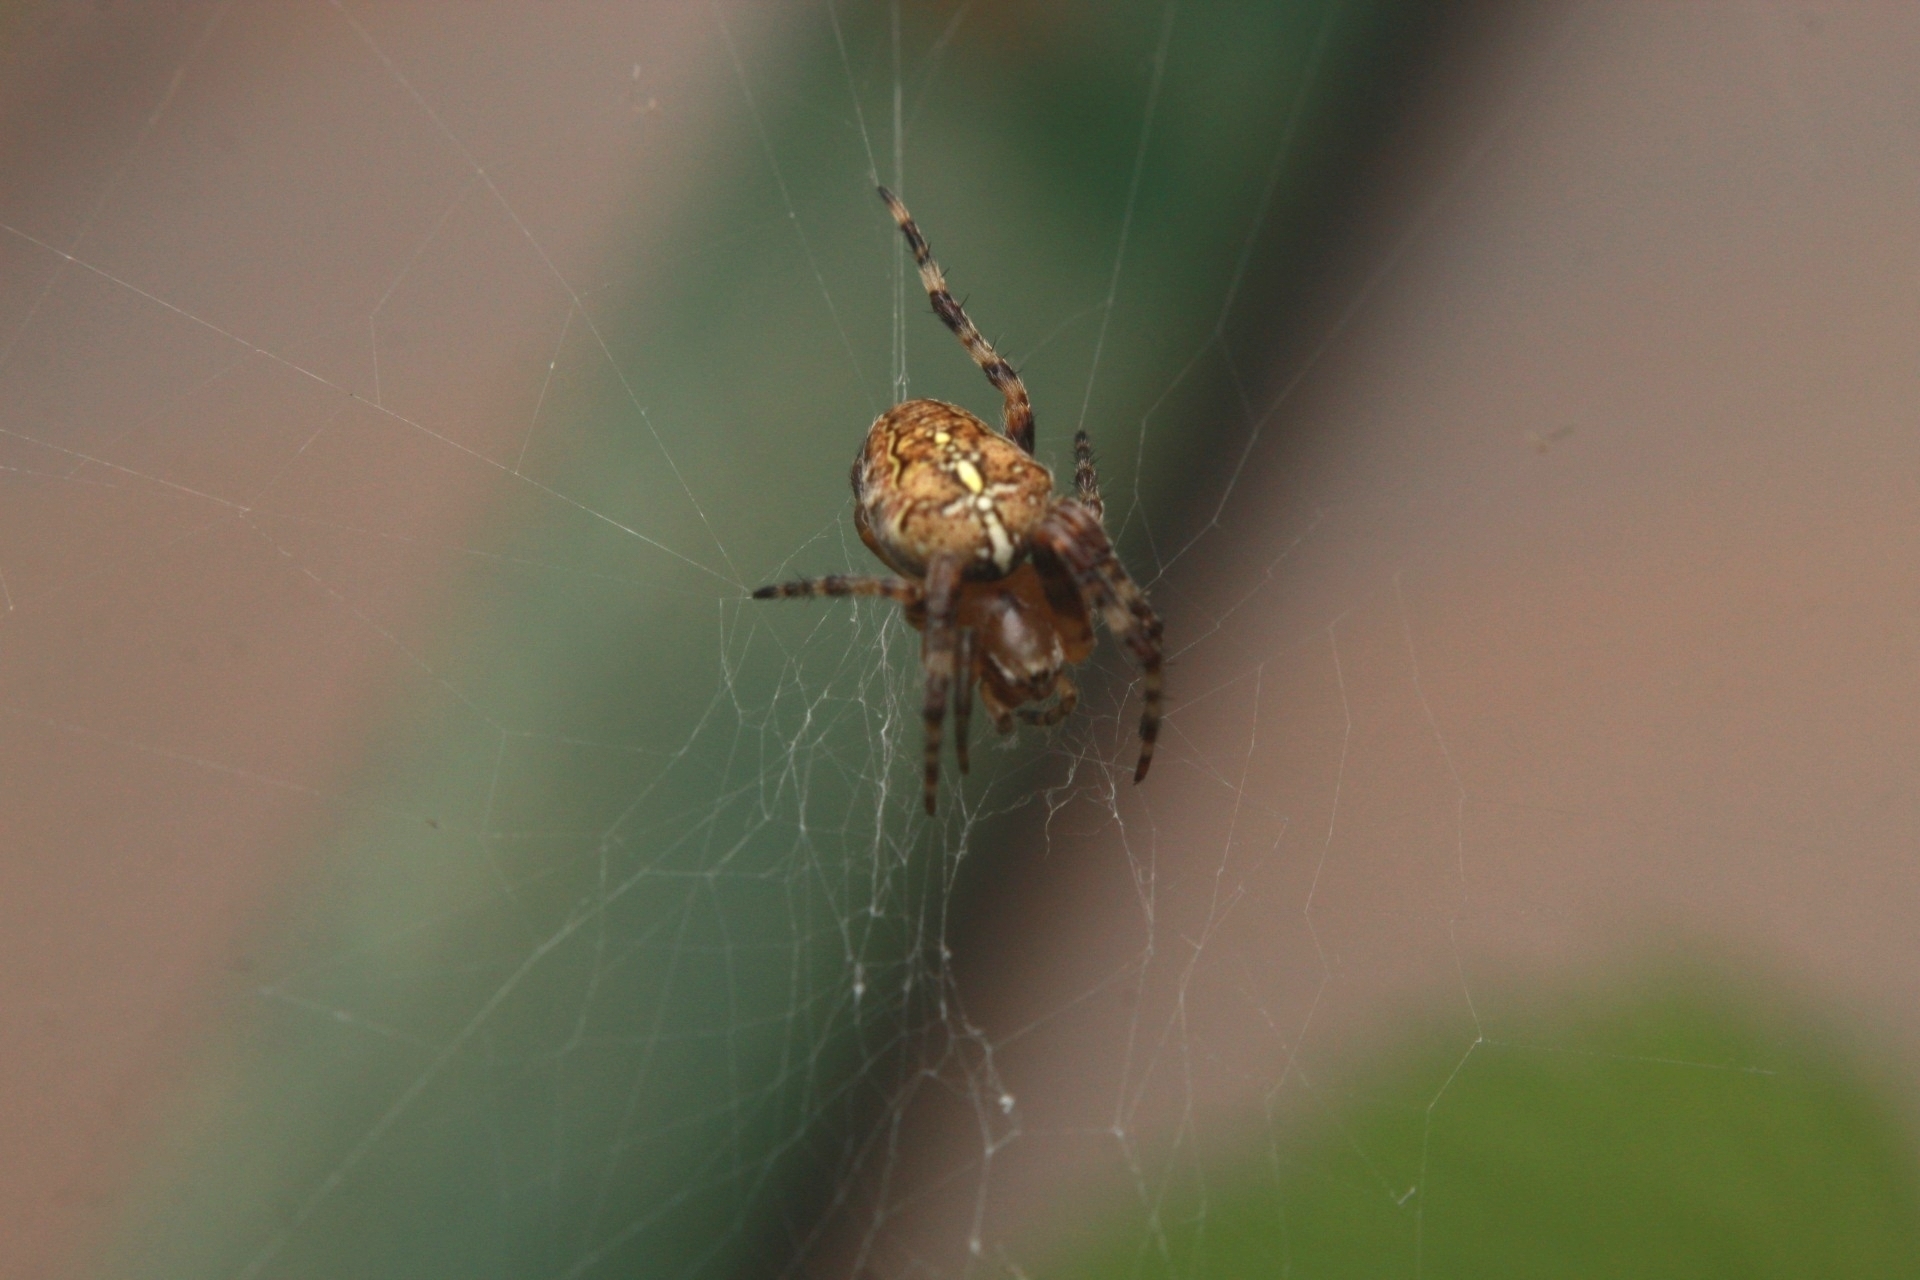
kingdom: Animalia
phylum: Arthropoda
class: Arachnida
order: Araneae
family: Araneidae
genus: Araneus
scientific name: Araneus diadematus
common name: Cross orbweaver
